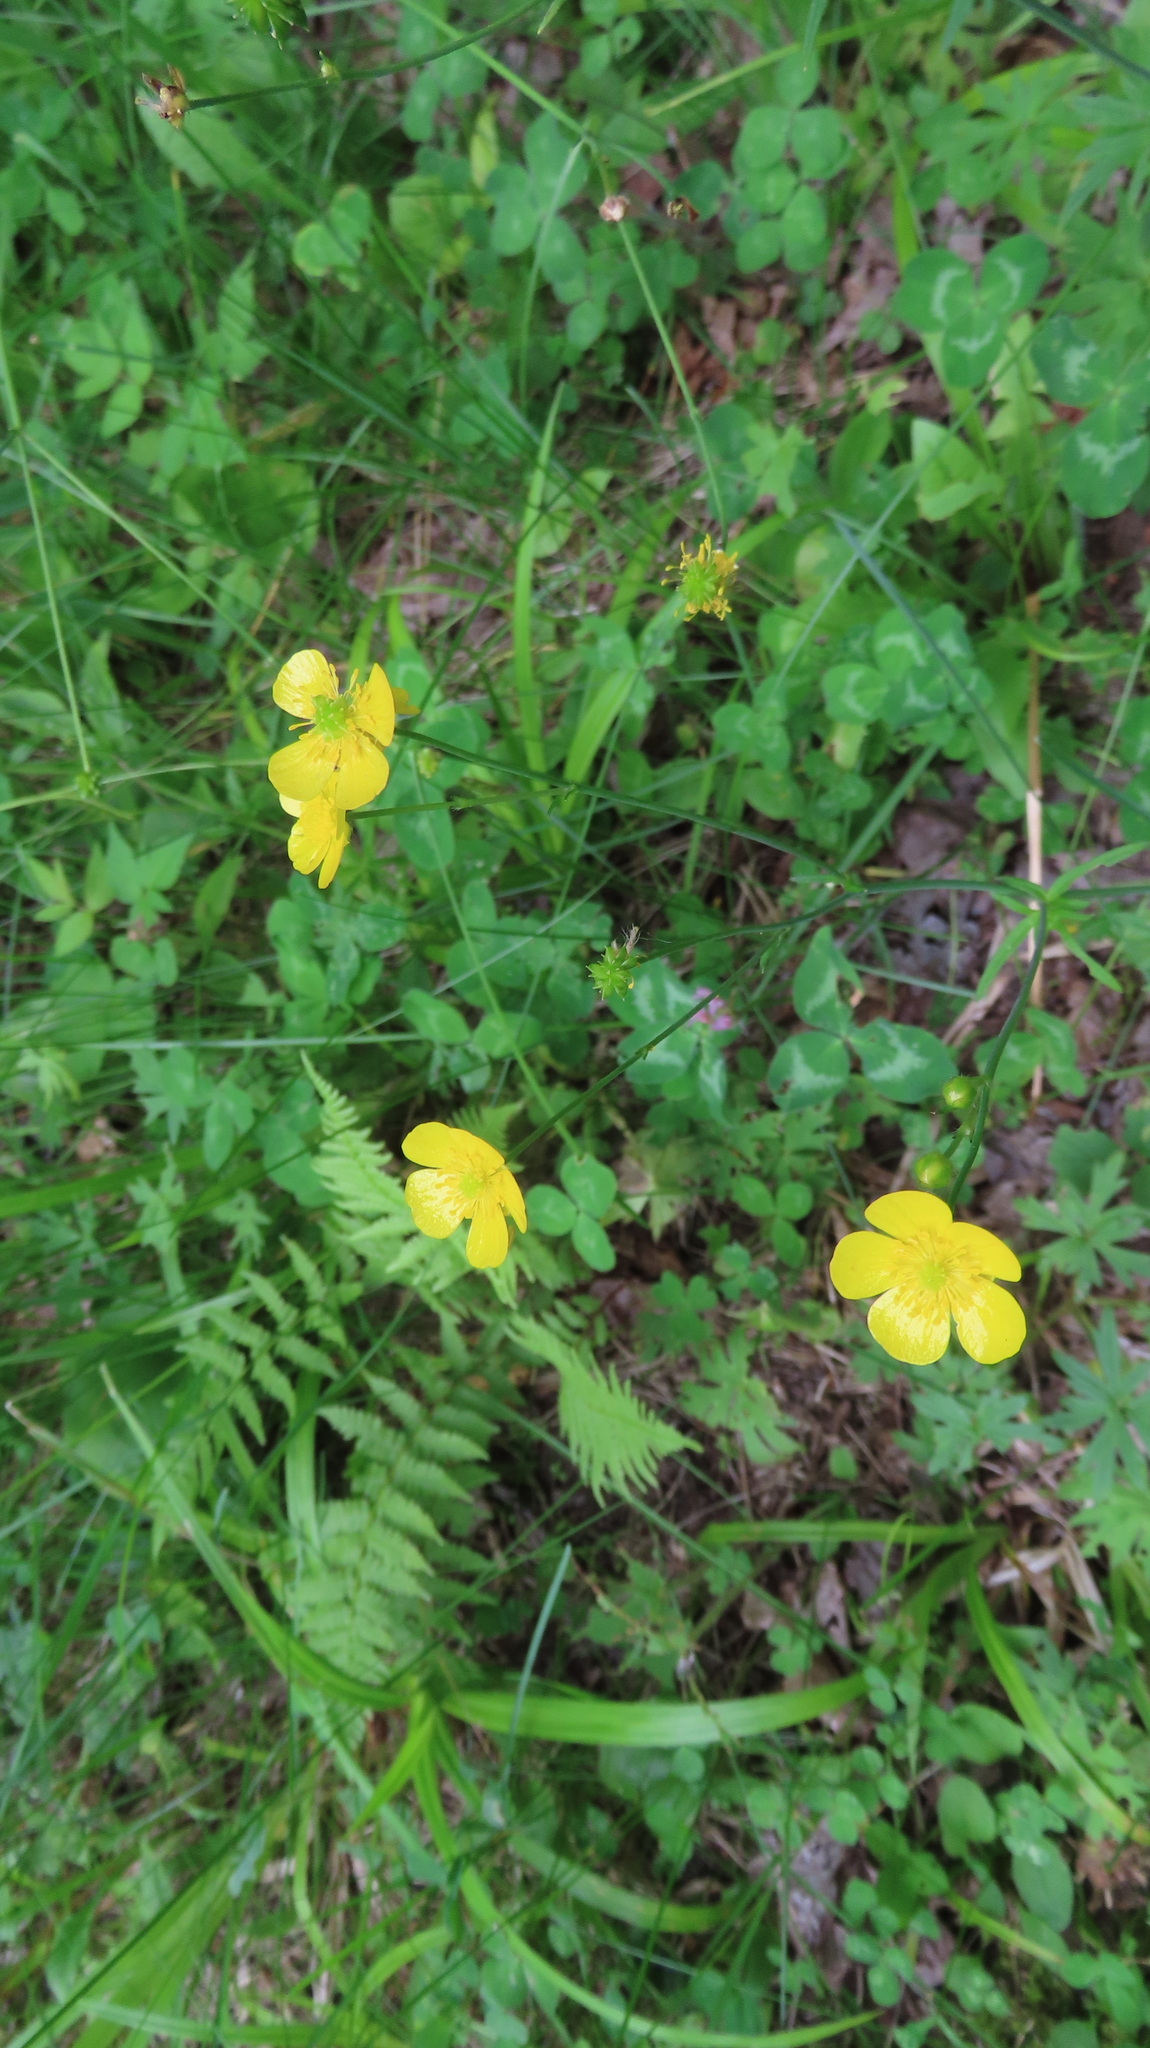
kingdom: Plantae
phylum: Tracheophyta
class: Magnoliopsida
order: Ranunculales
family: Ranunculaceae
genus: Ranunculus
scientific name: Ranunculus acris
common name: Meadow buttercup
